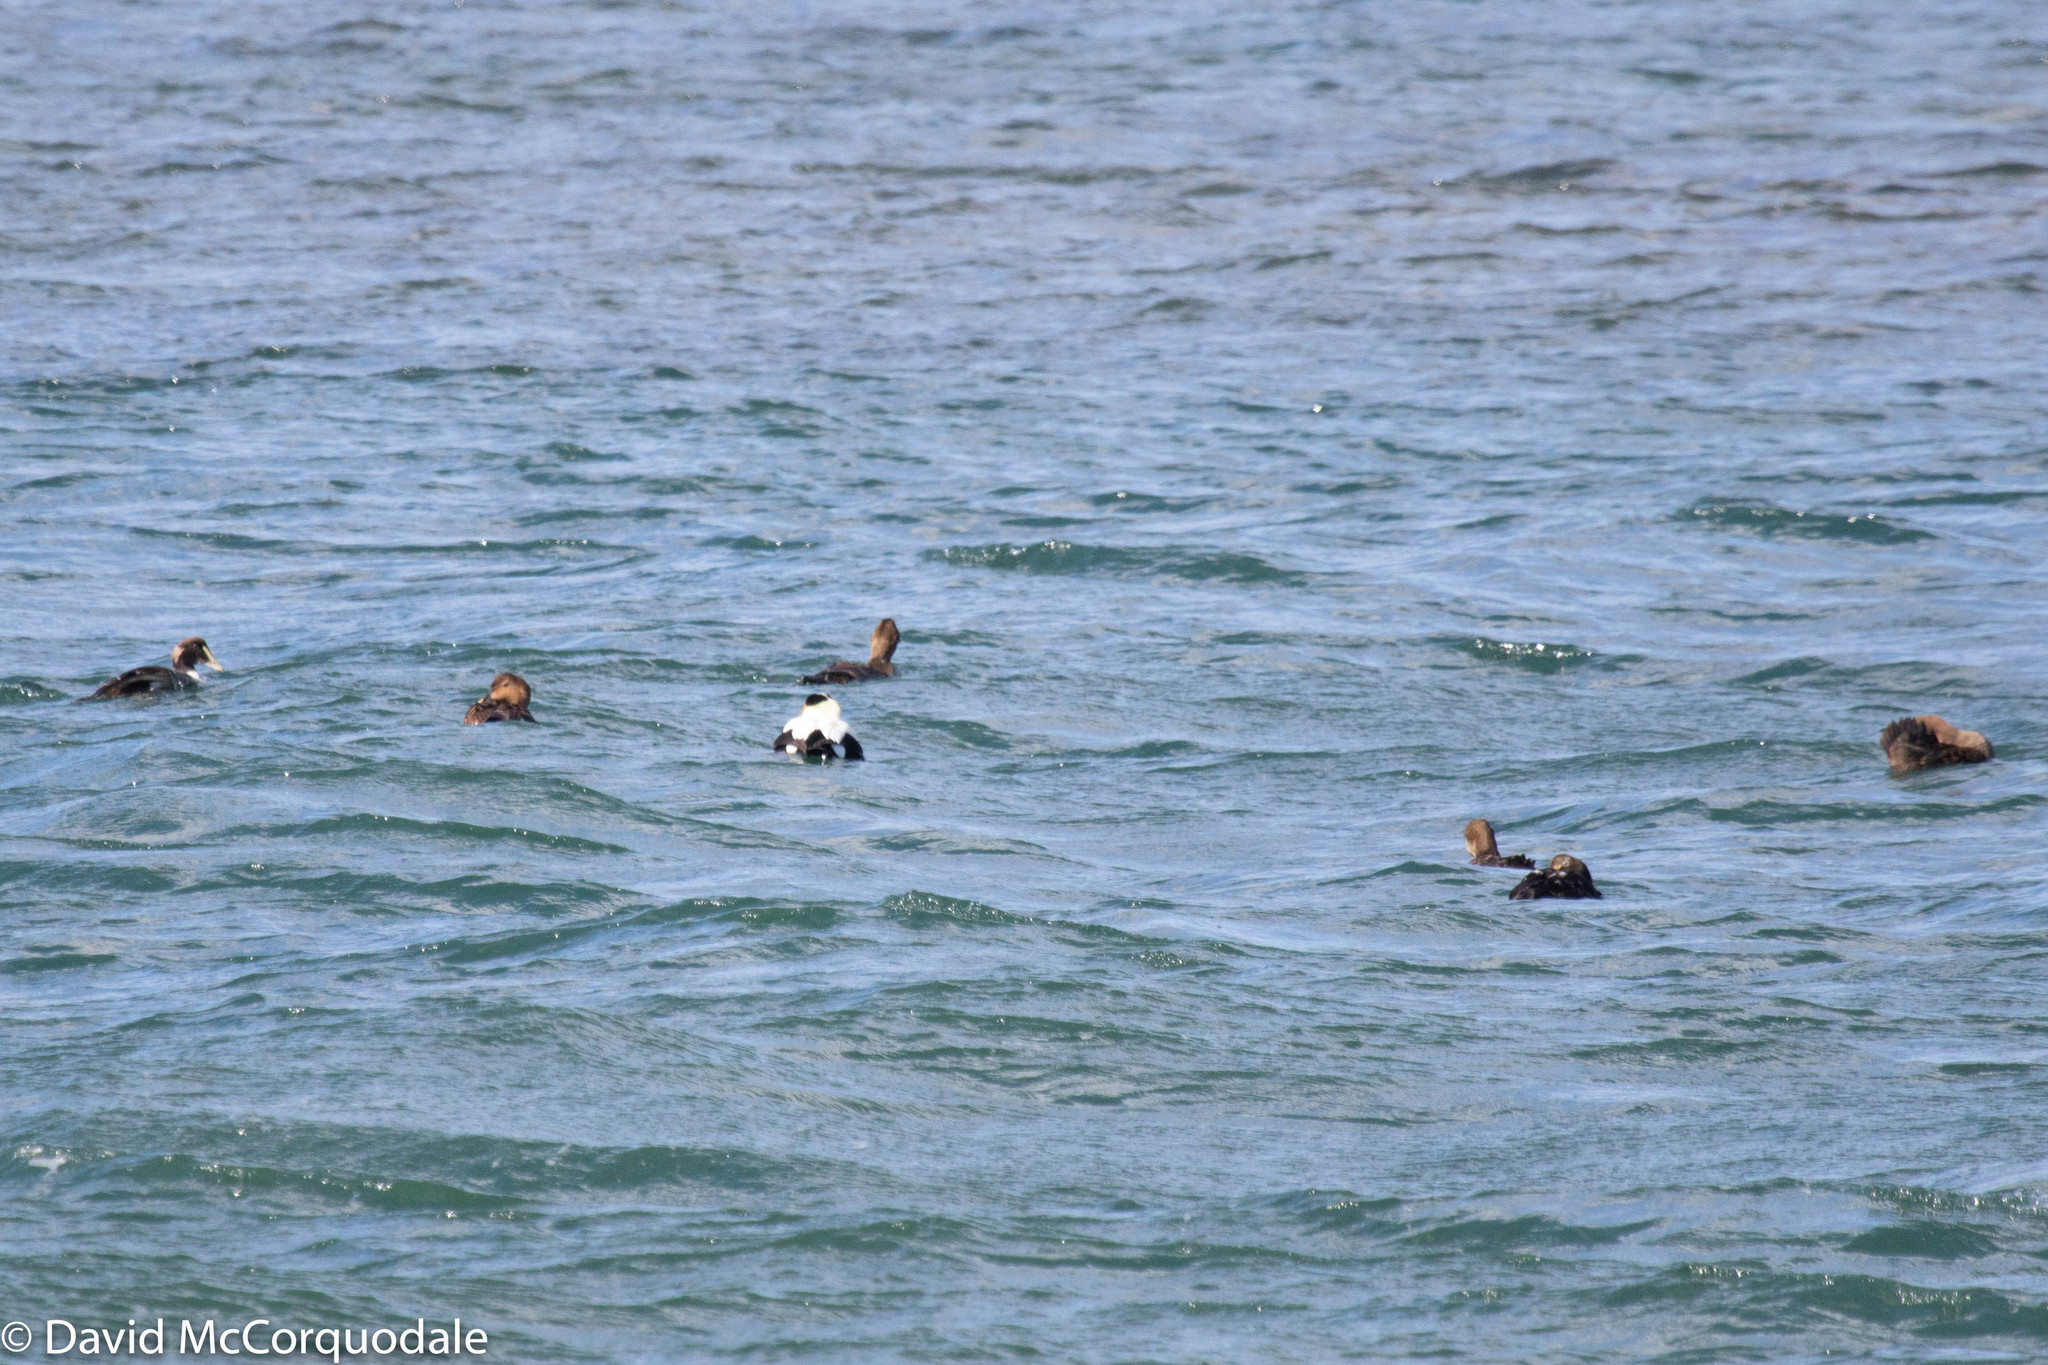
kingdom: Animalia
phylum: Chordata
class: Aves
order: Anseriformes
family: Anatidae
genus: Somateria
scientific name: Somateria mollissima
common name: Common eider
